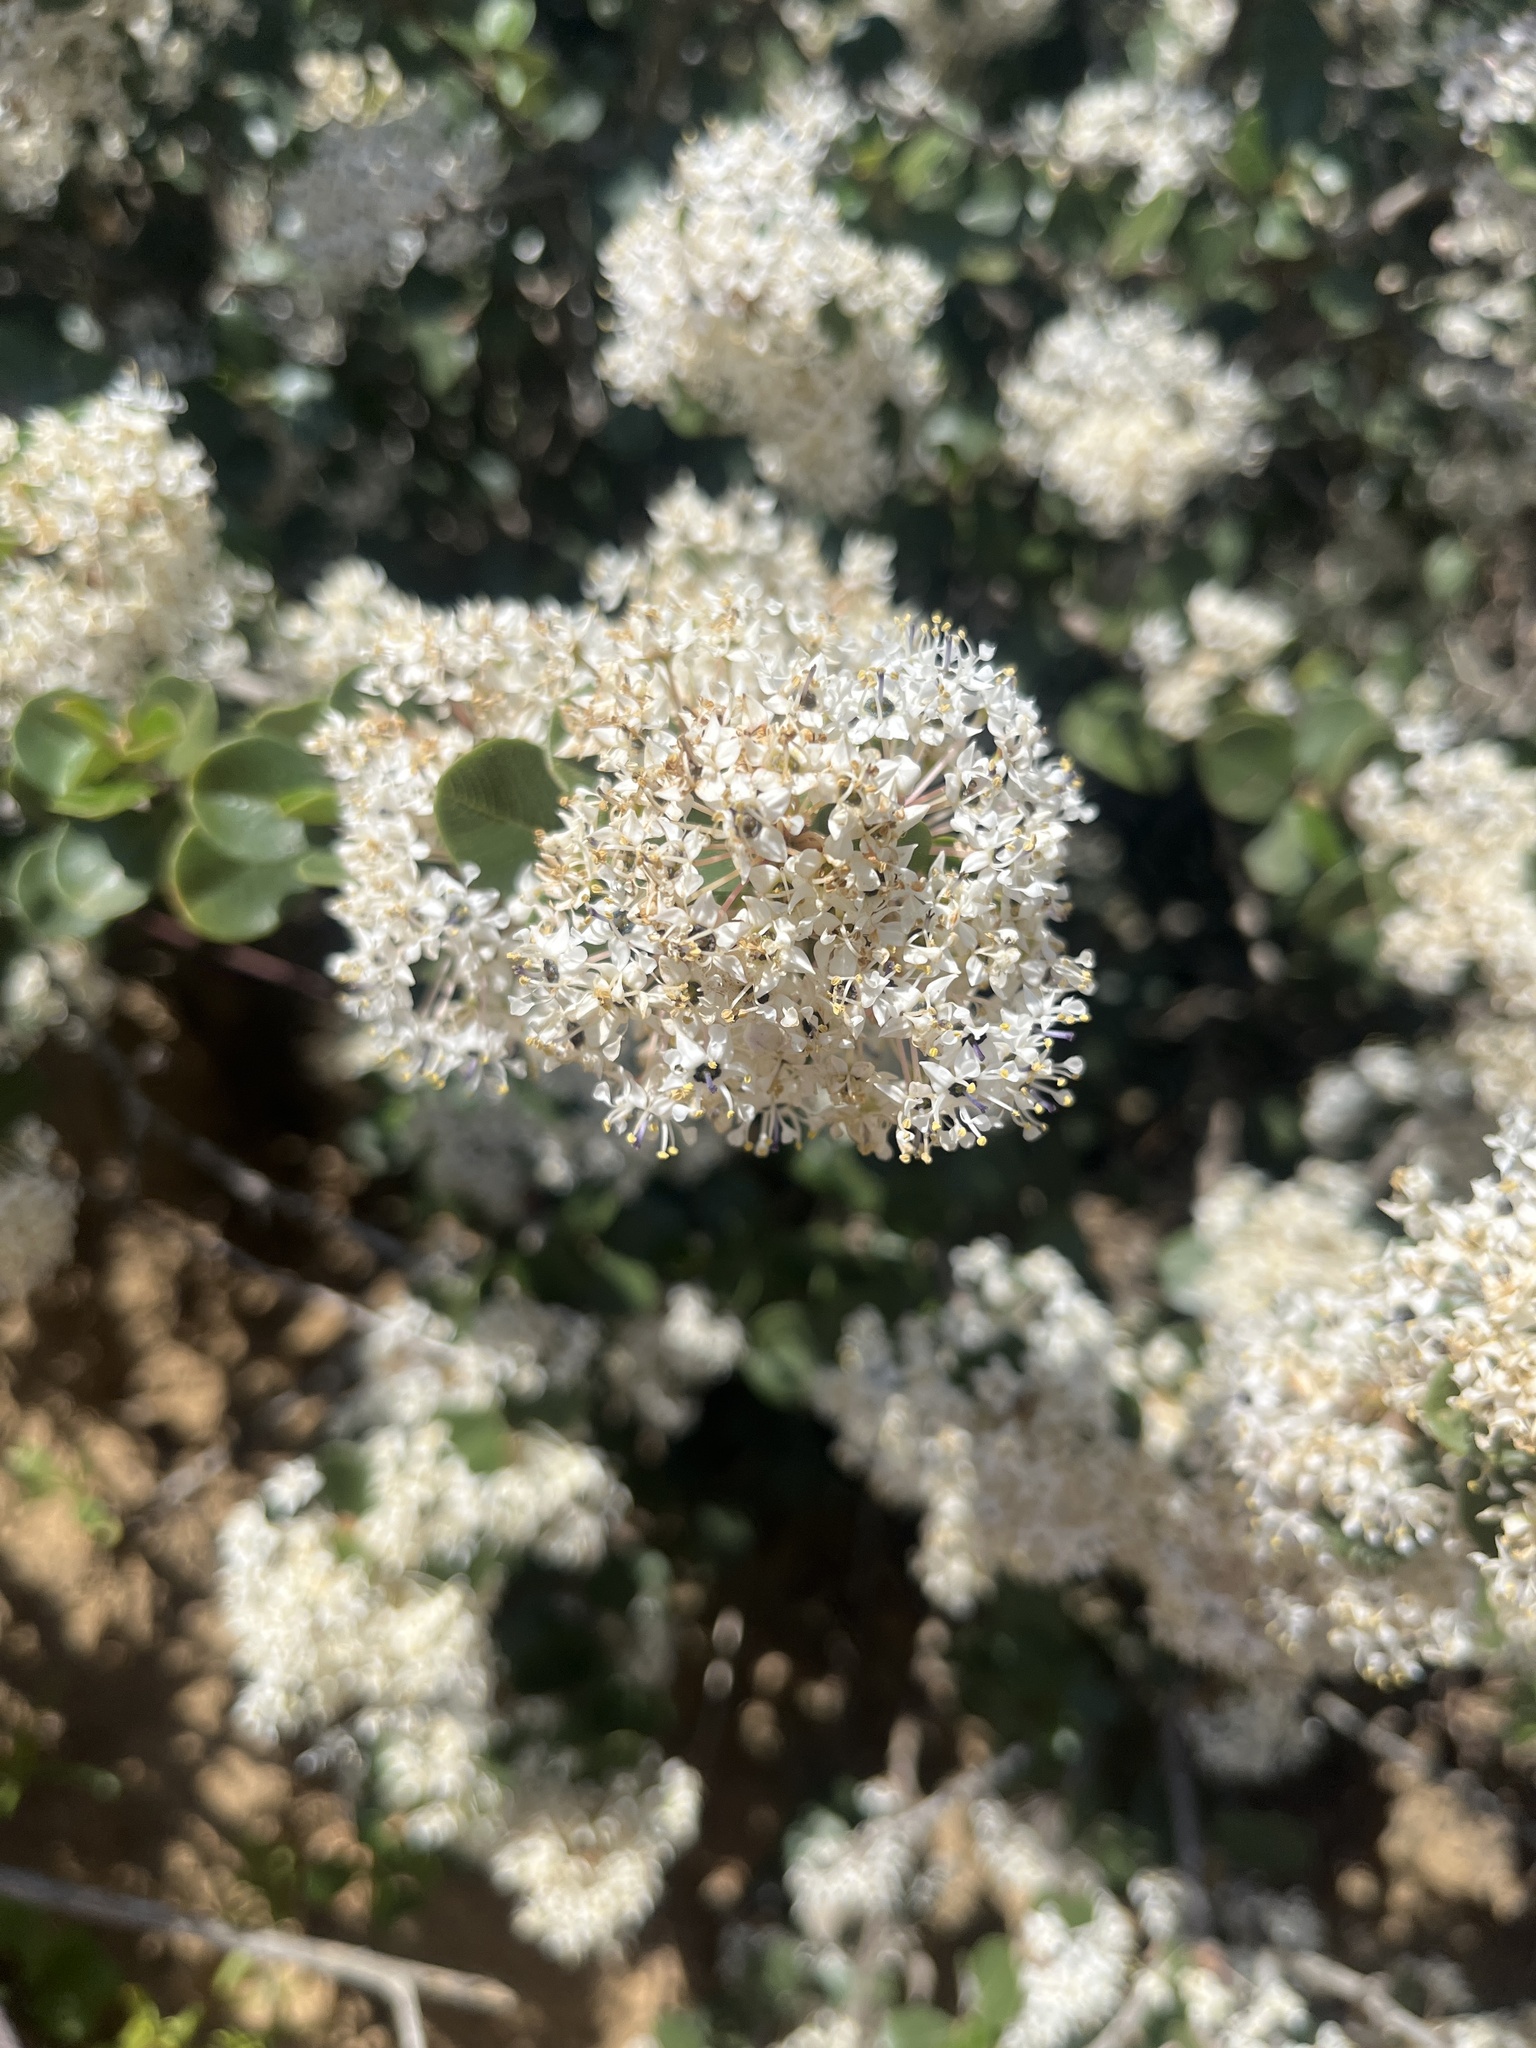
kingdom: Plantae
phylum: Tracheophyta
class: Magnoliopsida
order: Rosales
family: Rhamnaceae
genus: Ceanothus
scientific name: Ceanothus verrucosus
